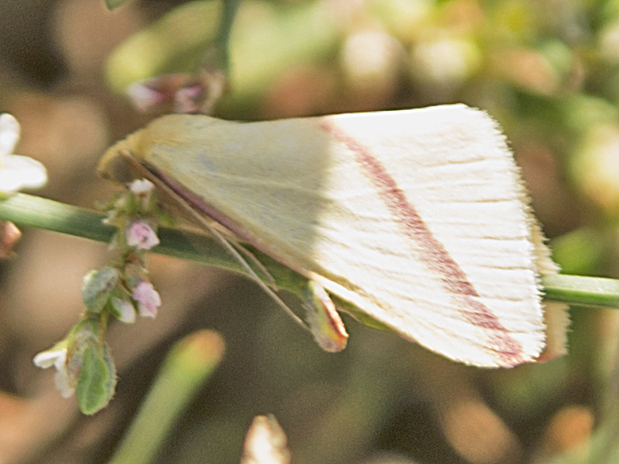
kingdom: Animalia
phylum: Arthropoda
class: Insecta
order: Lepidoptera
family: Geometridae
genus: Rhodometra
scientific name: Rhodometra sacraria
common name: Vestal
